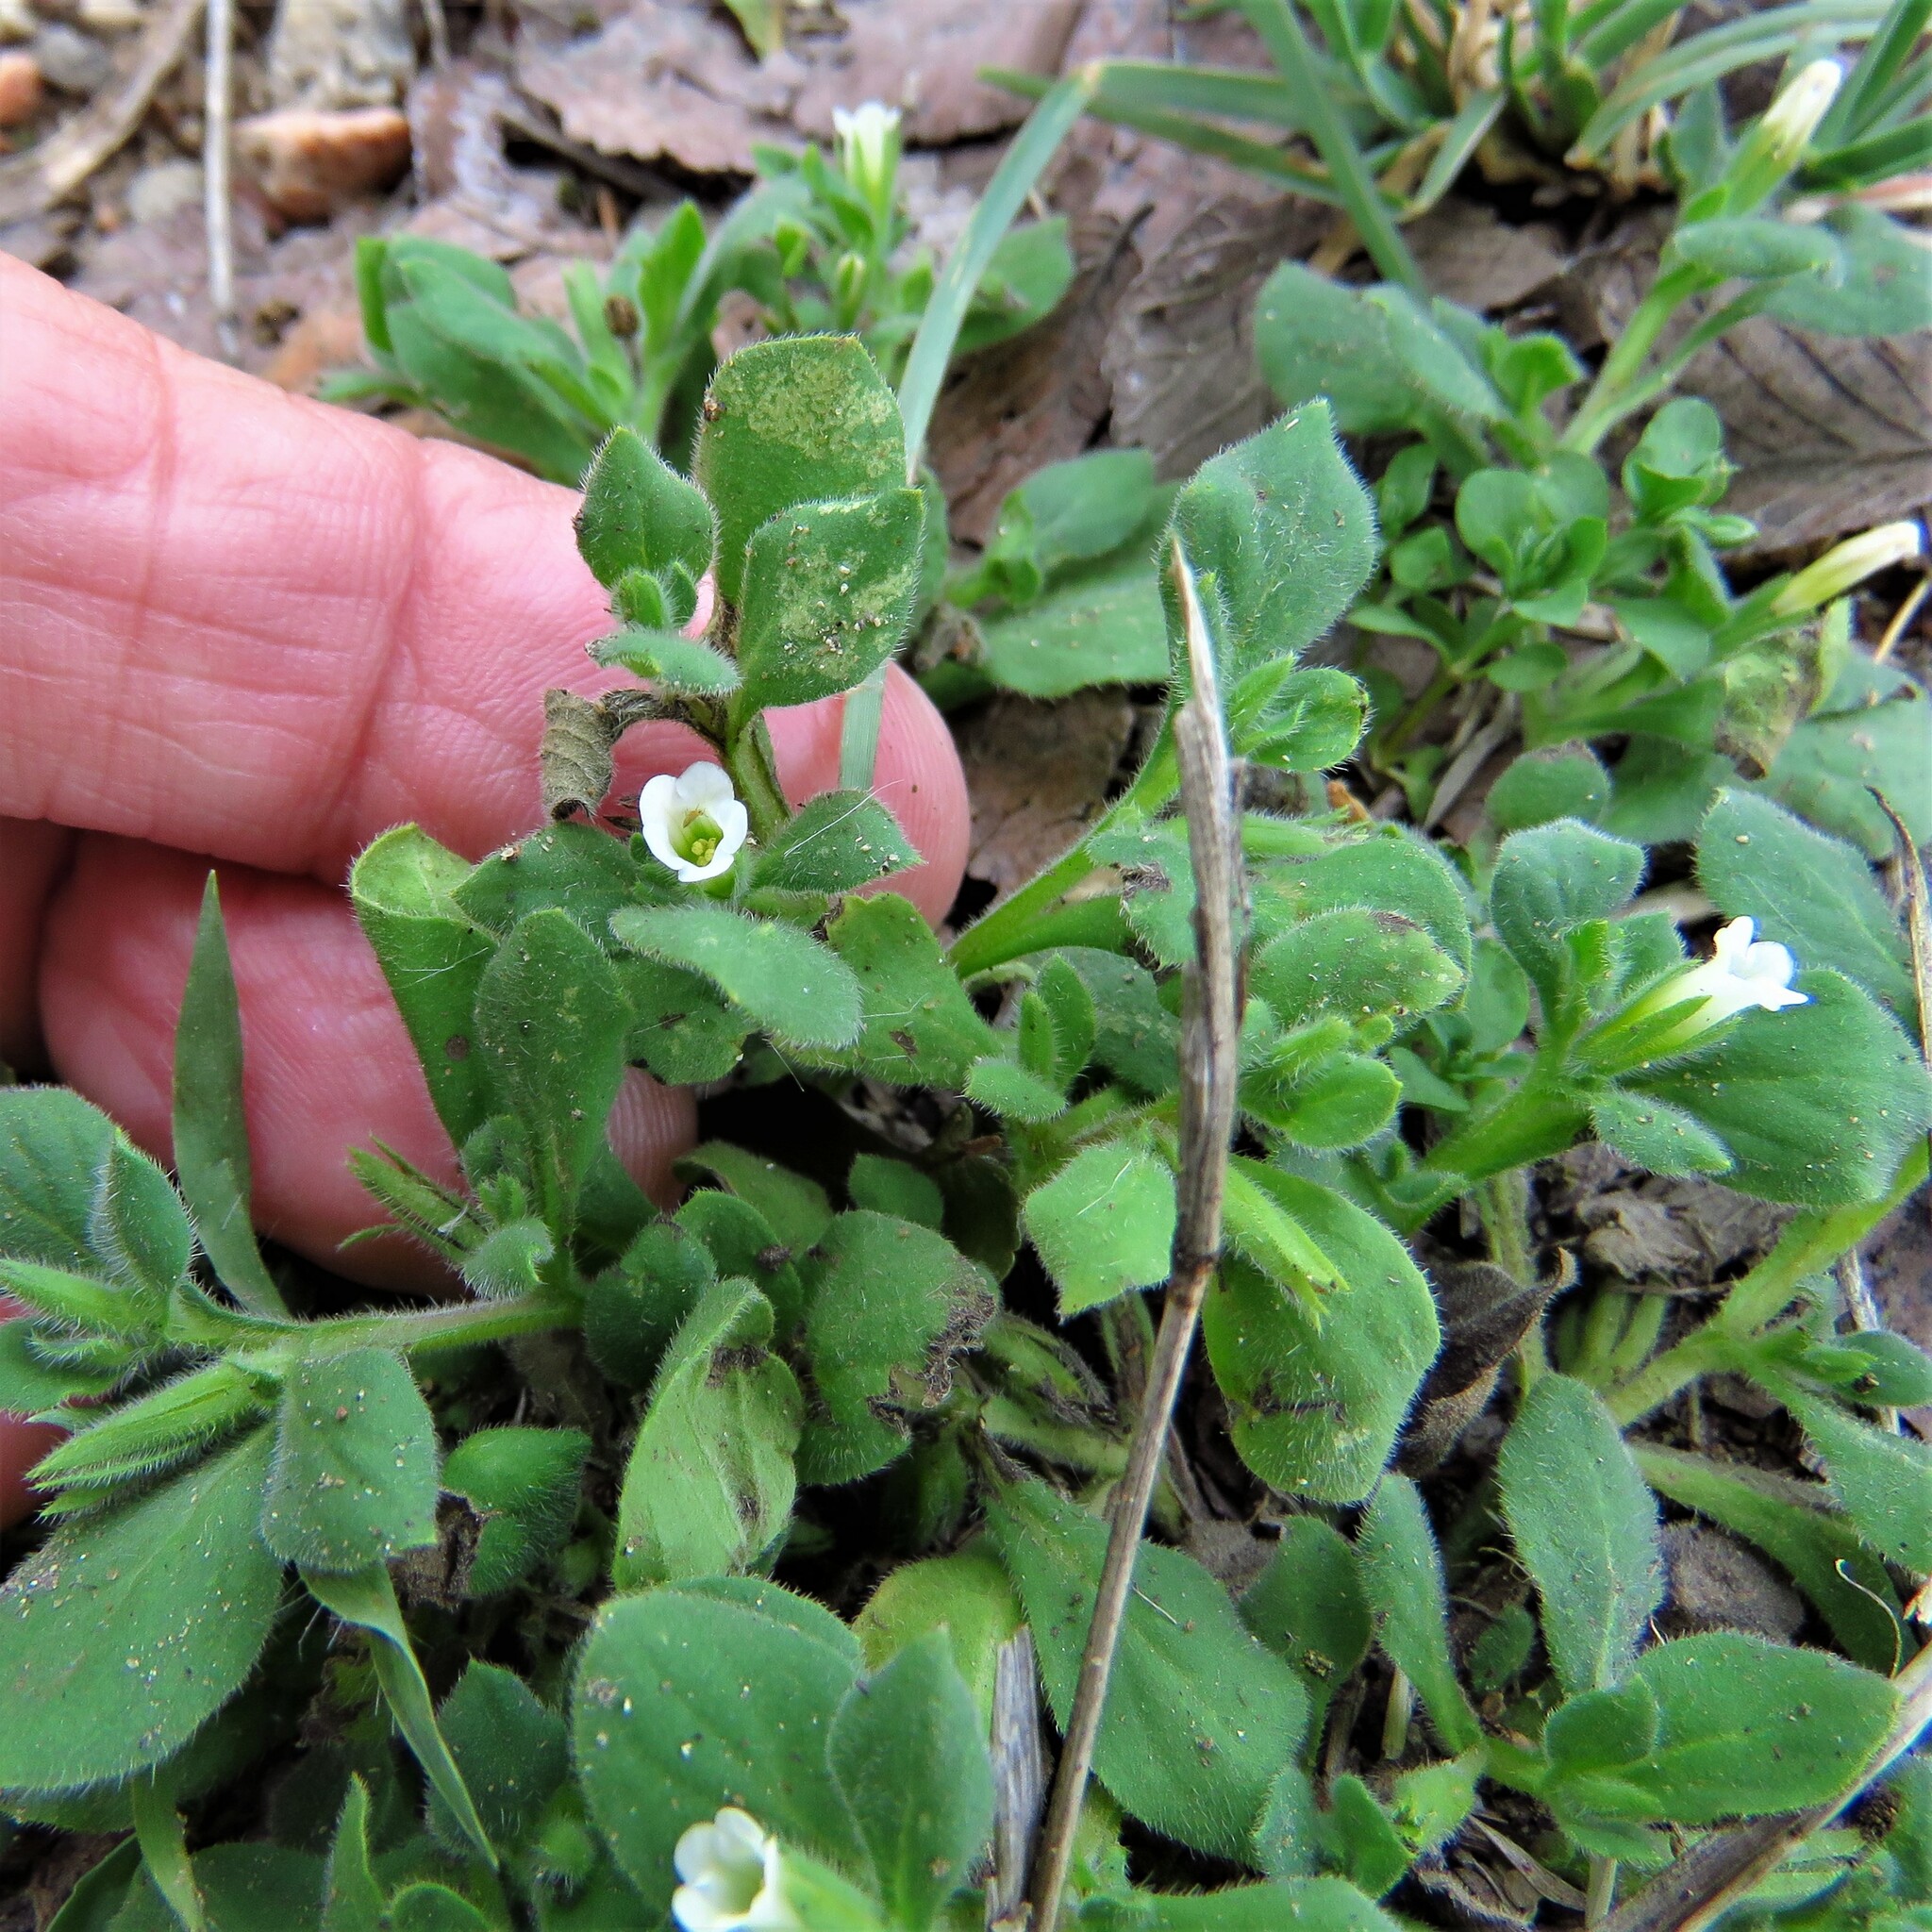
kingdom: Plantae
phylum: Tracheophyta
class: Magnoliopsida
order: Boraginales
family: Namaceae
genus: Nama
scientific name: Nama jamaicensis
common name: Jamaicanweed
